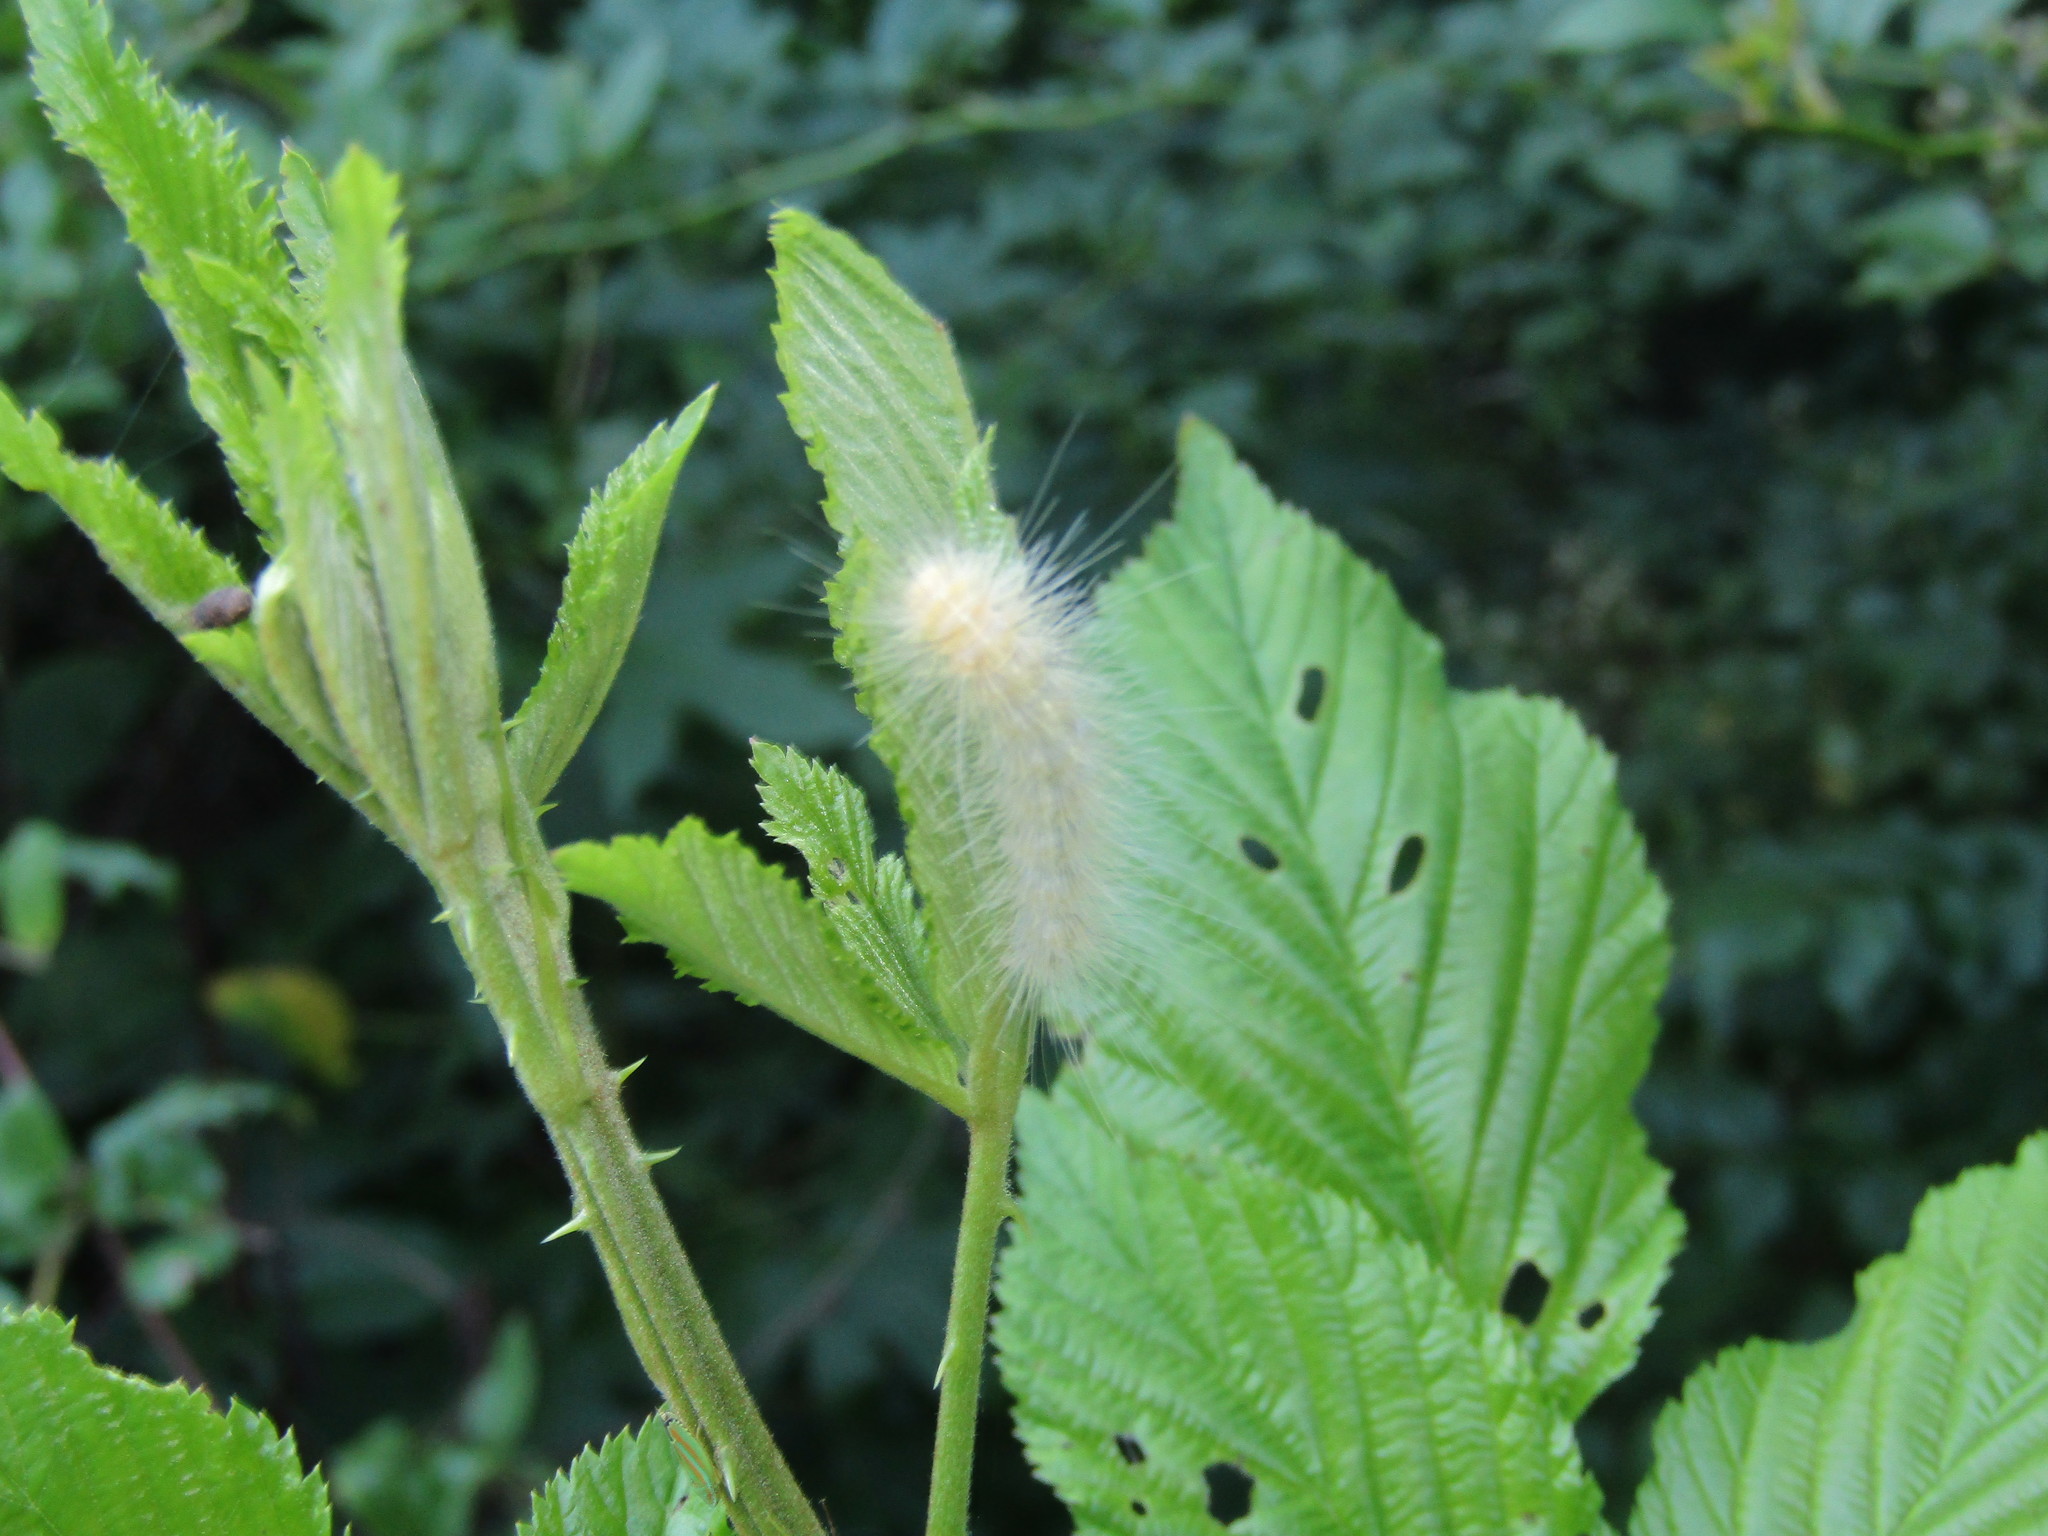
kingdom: Animalia
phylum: Arthropoda
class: Insecta
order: Lepidoptera
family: Erebidae
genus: Spilosoma
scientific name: Spilosoma virginica
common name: Virginia tiger moth
